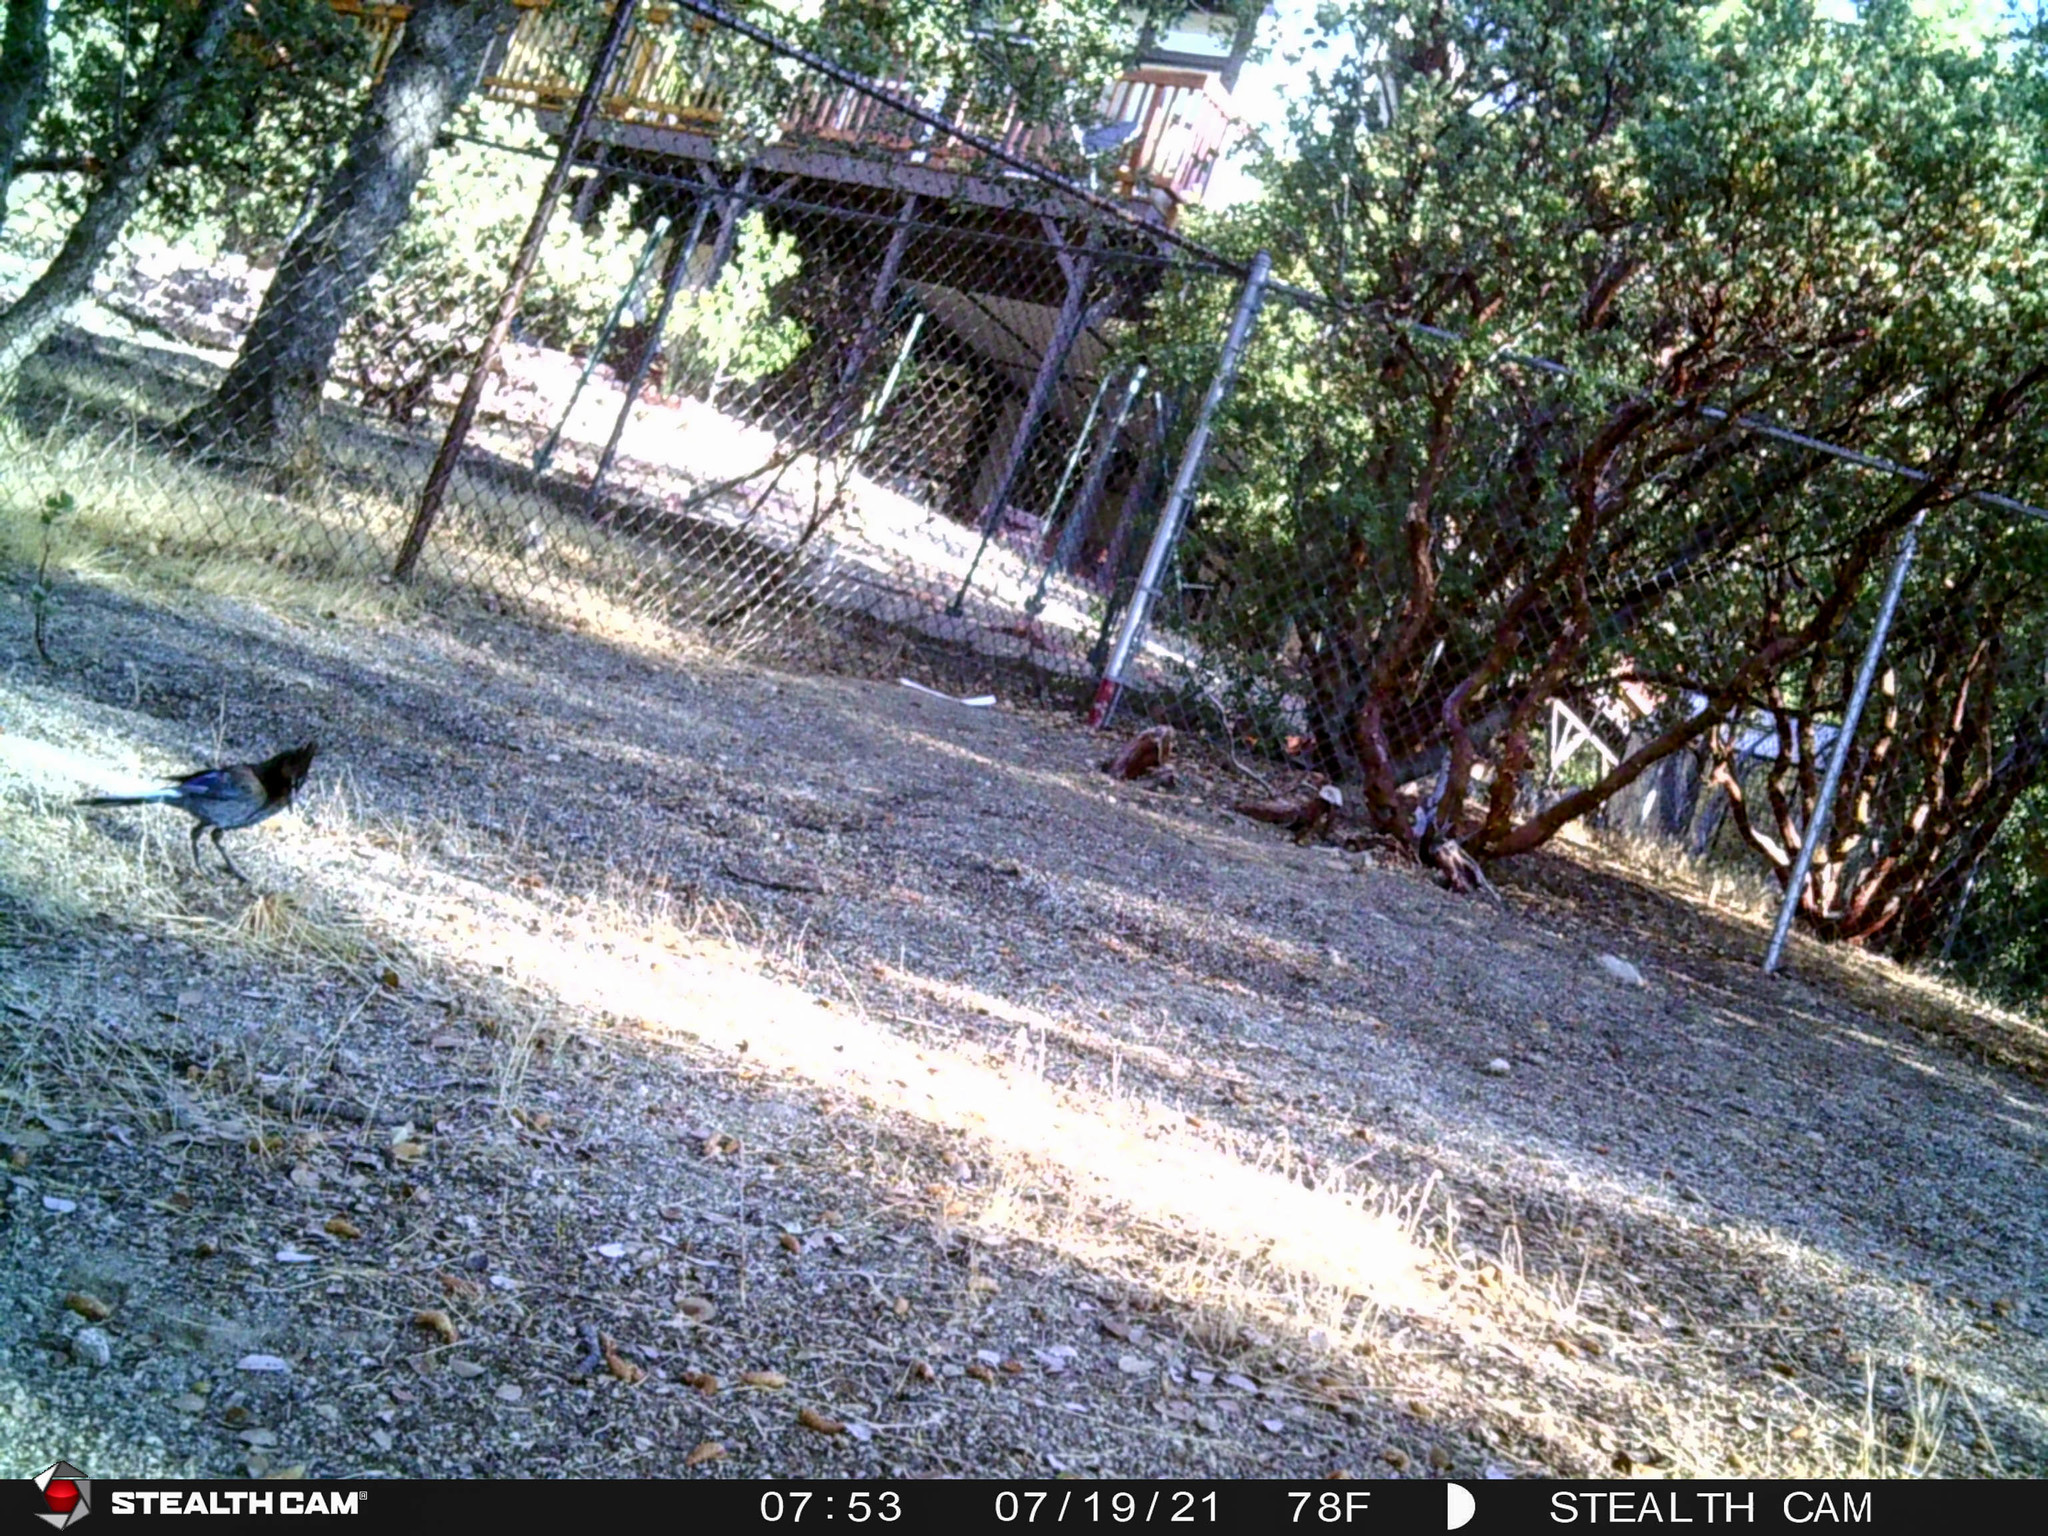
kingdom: Animalia
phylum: Chordata
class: Aves
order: Passeriformes
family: Corvidae
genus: Cyanocitta
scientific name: Cyanocitta stelleri
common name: Steller's jay
